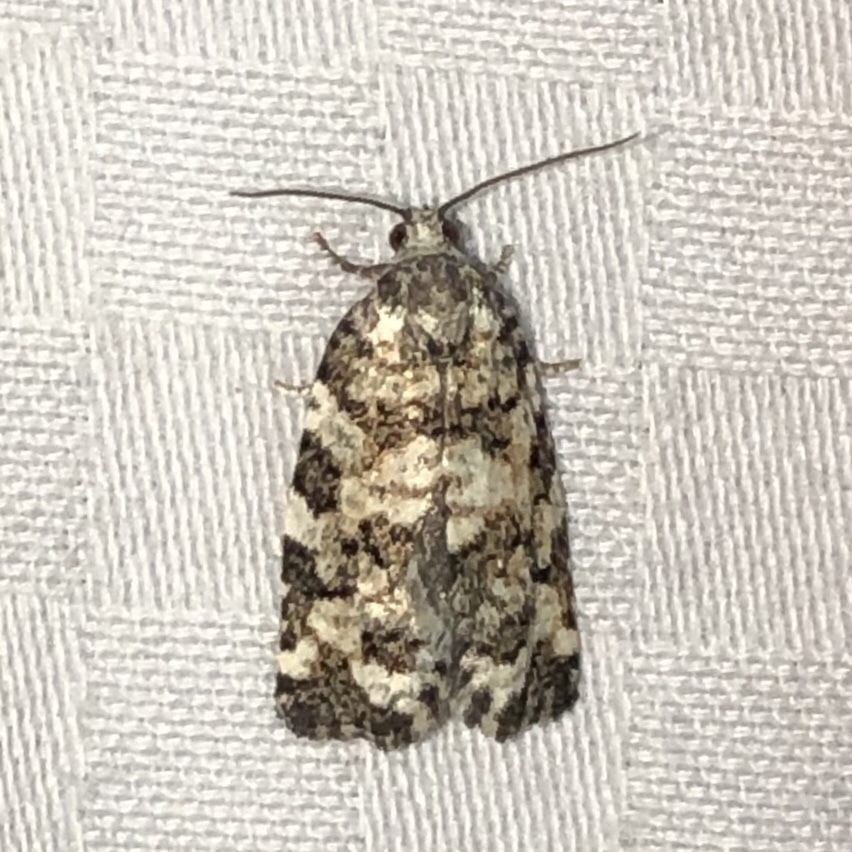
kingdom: Animalia
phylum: Arthropoda
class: Insecta
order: Lepidoptera
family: Tortricidae
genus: Archips
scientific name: Archips packardiana
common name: Spring spruce needle moth
